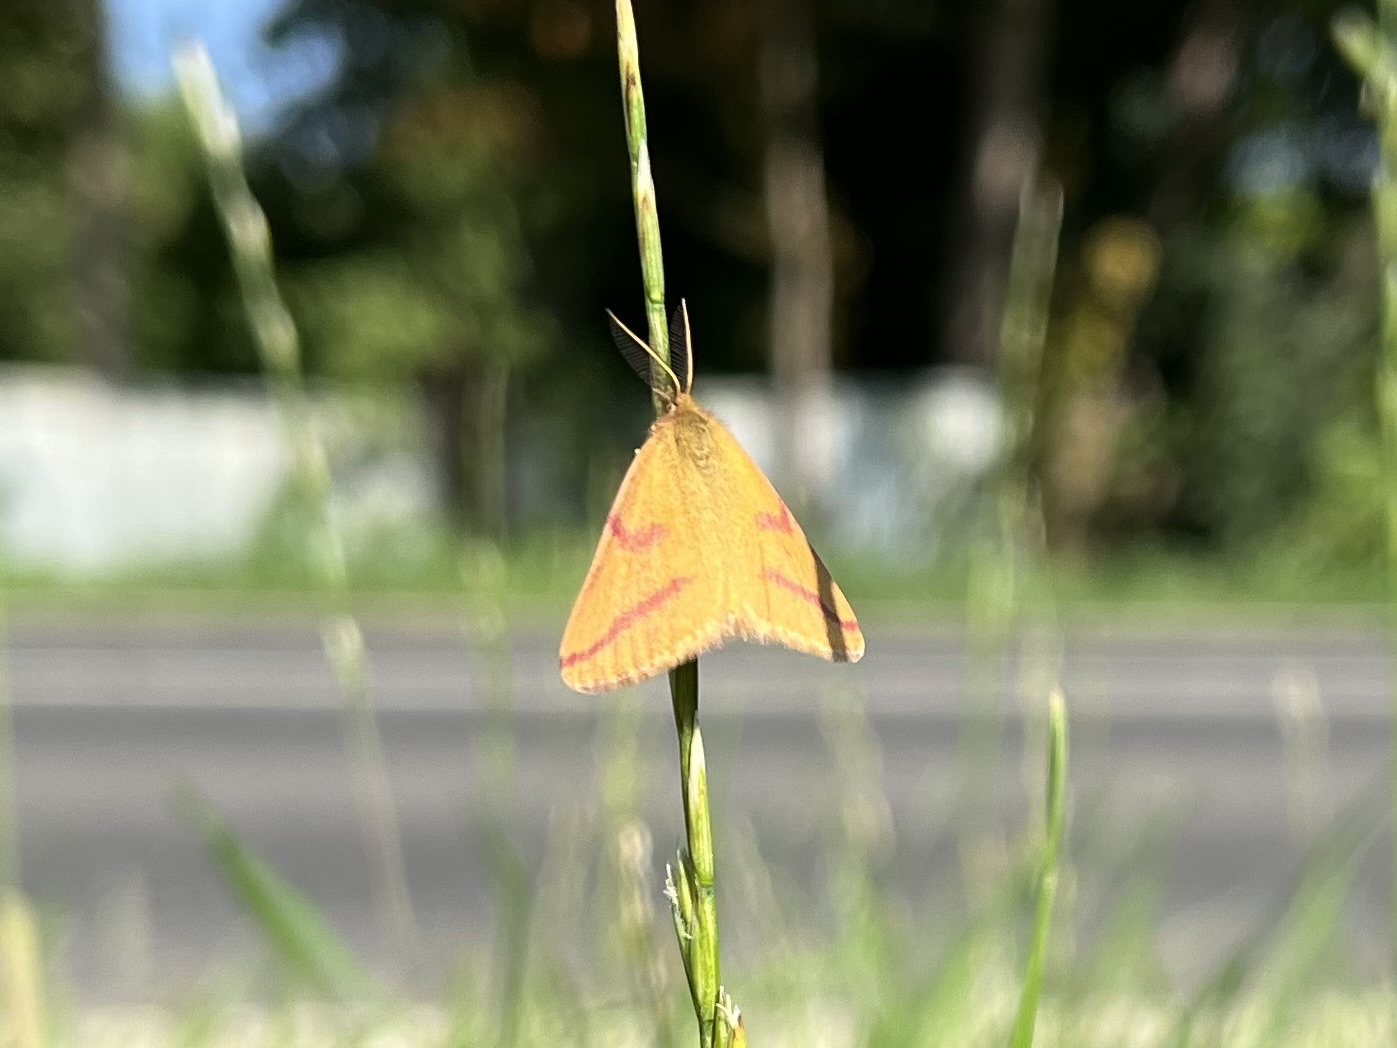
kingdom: Animalia
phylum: Arthropoda
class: Insecta
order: Lepidoptera
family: Geometridae
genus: Lythria
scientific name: Lythria purpuraria
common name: Purple-barred yellow
